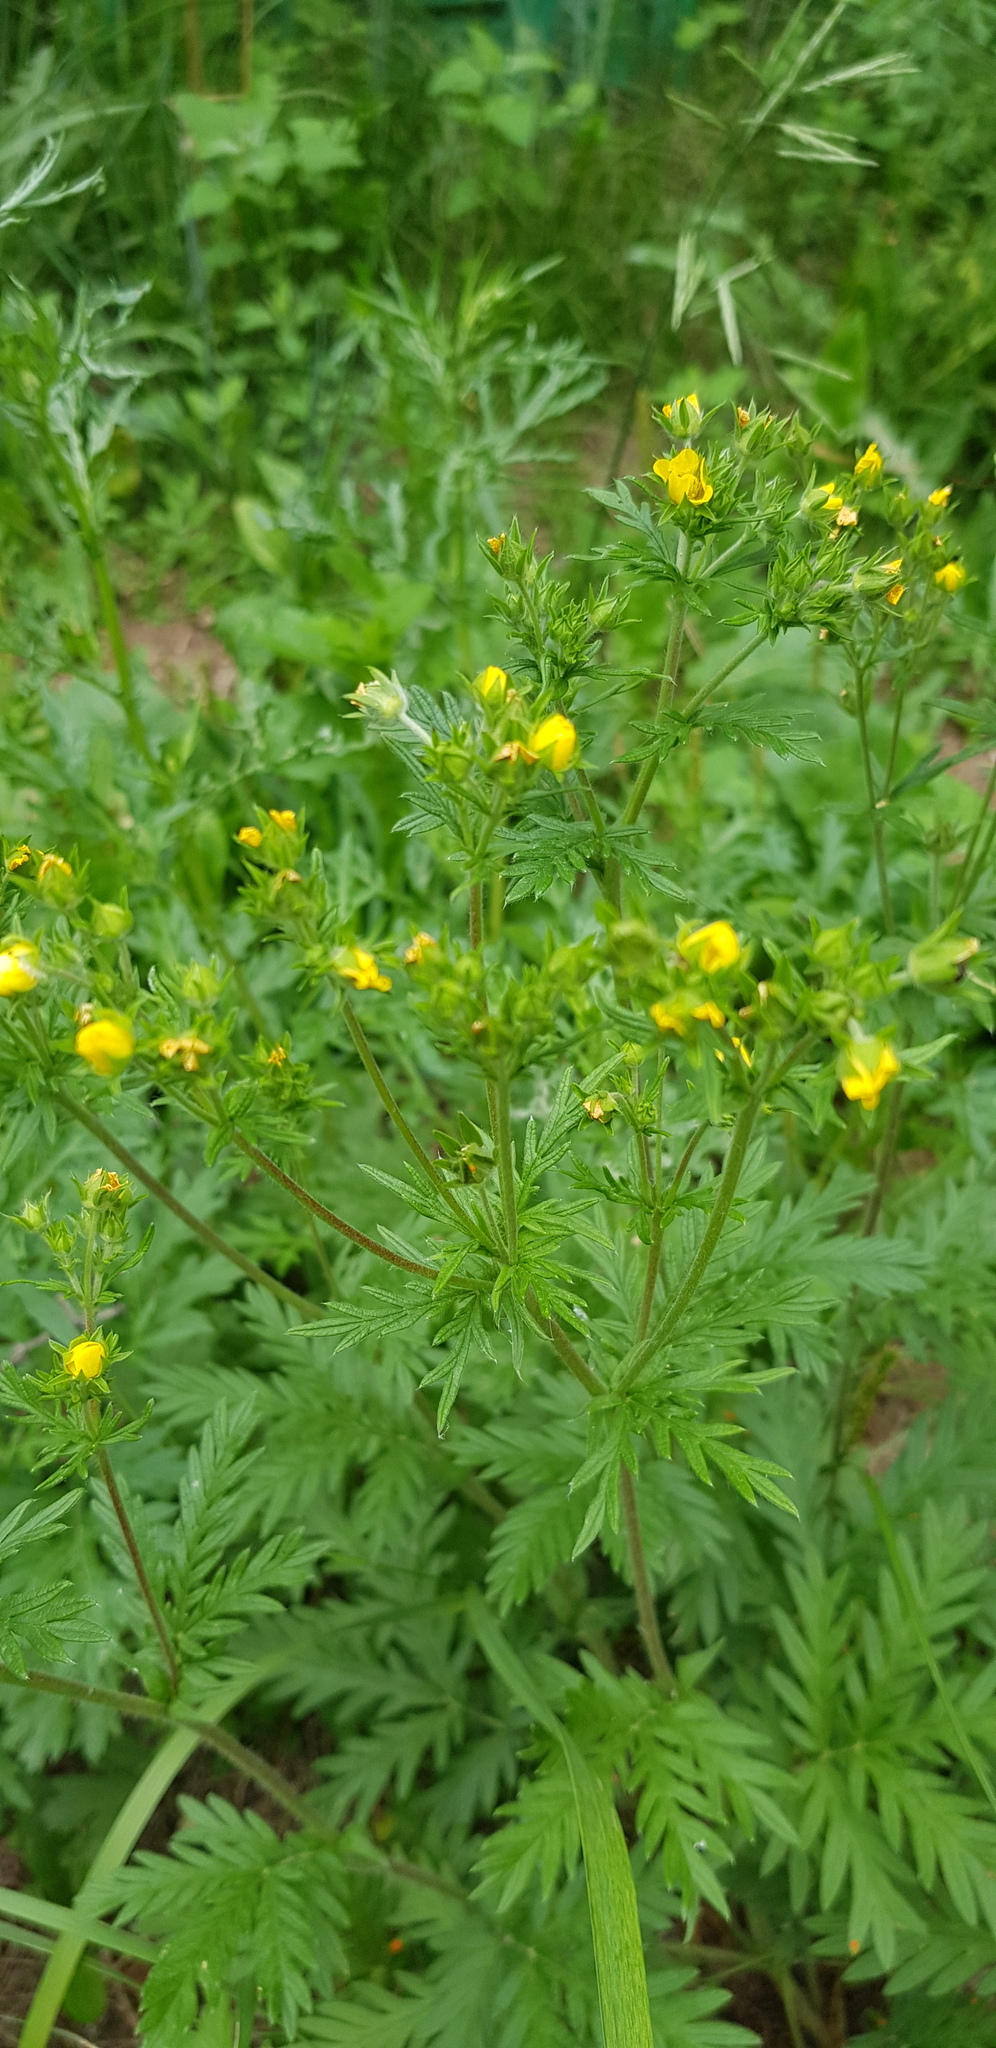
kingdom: Plantae
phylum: Tracheophyta
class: Magnoliopsida
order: Rosales
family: Rosaceae
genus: Potentilla
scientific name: Potentilla chalchorum
